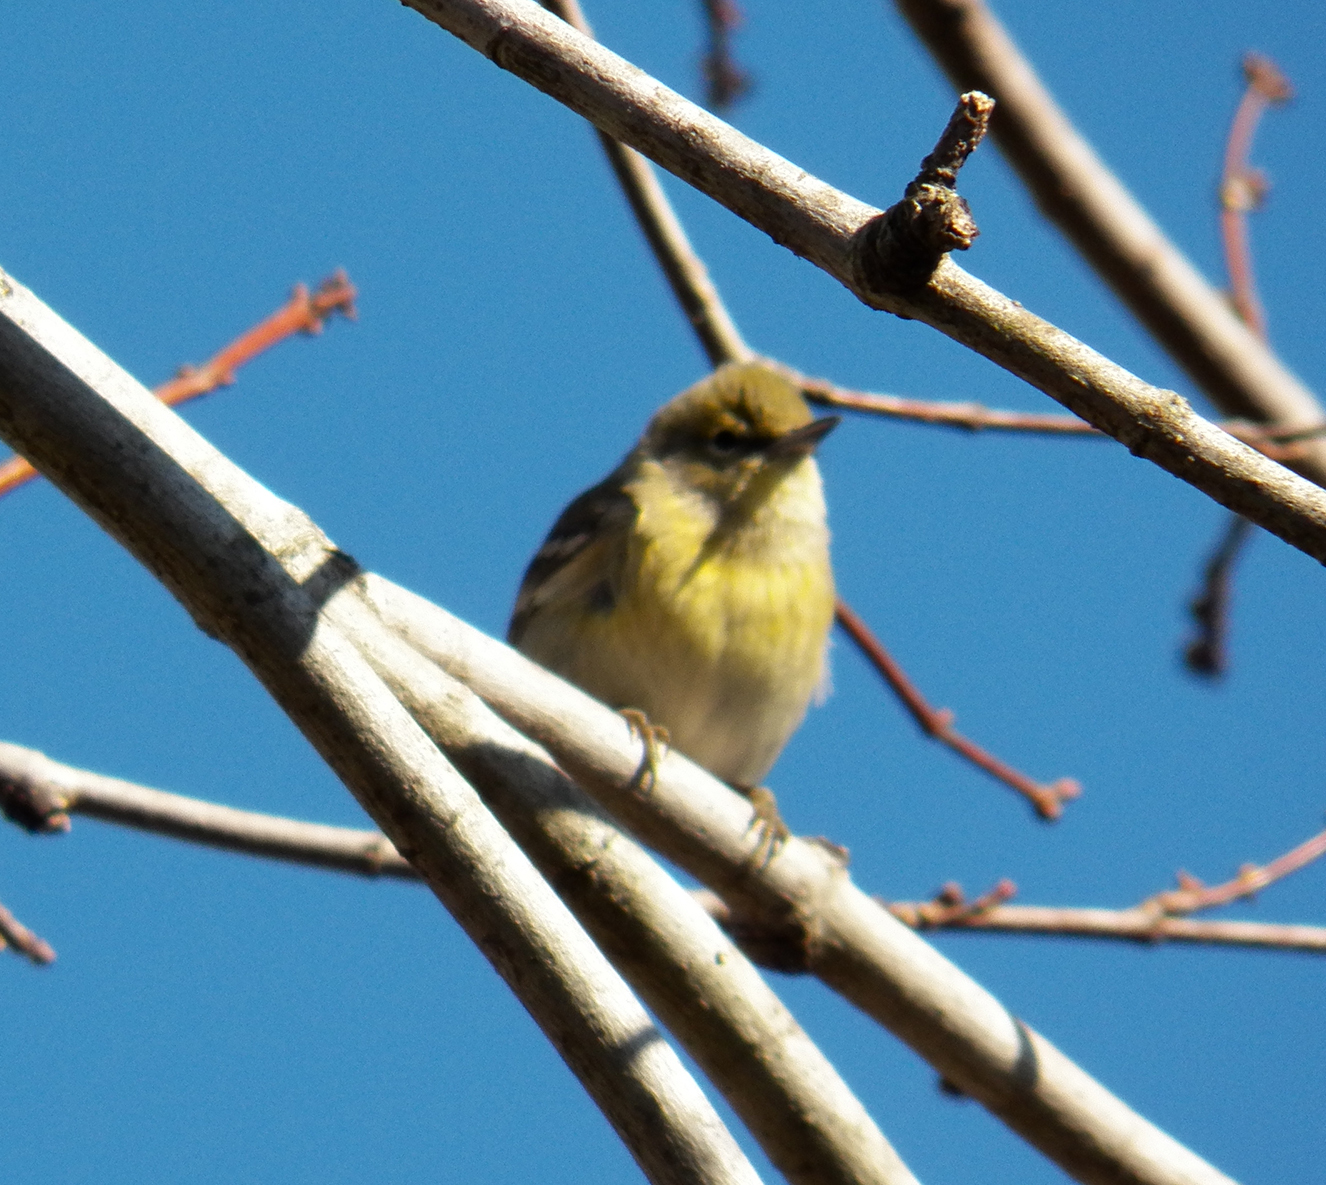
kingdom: Animalia
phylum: Chordata
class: Aves
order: Passeriformes
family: Parulidae
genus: Setophaga
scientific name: Setophaga pinus
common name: Pine warbler
